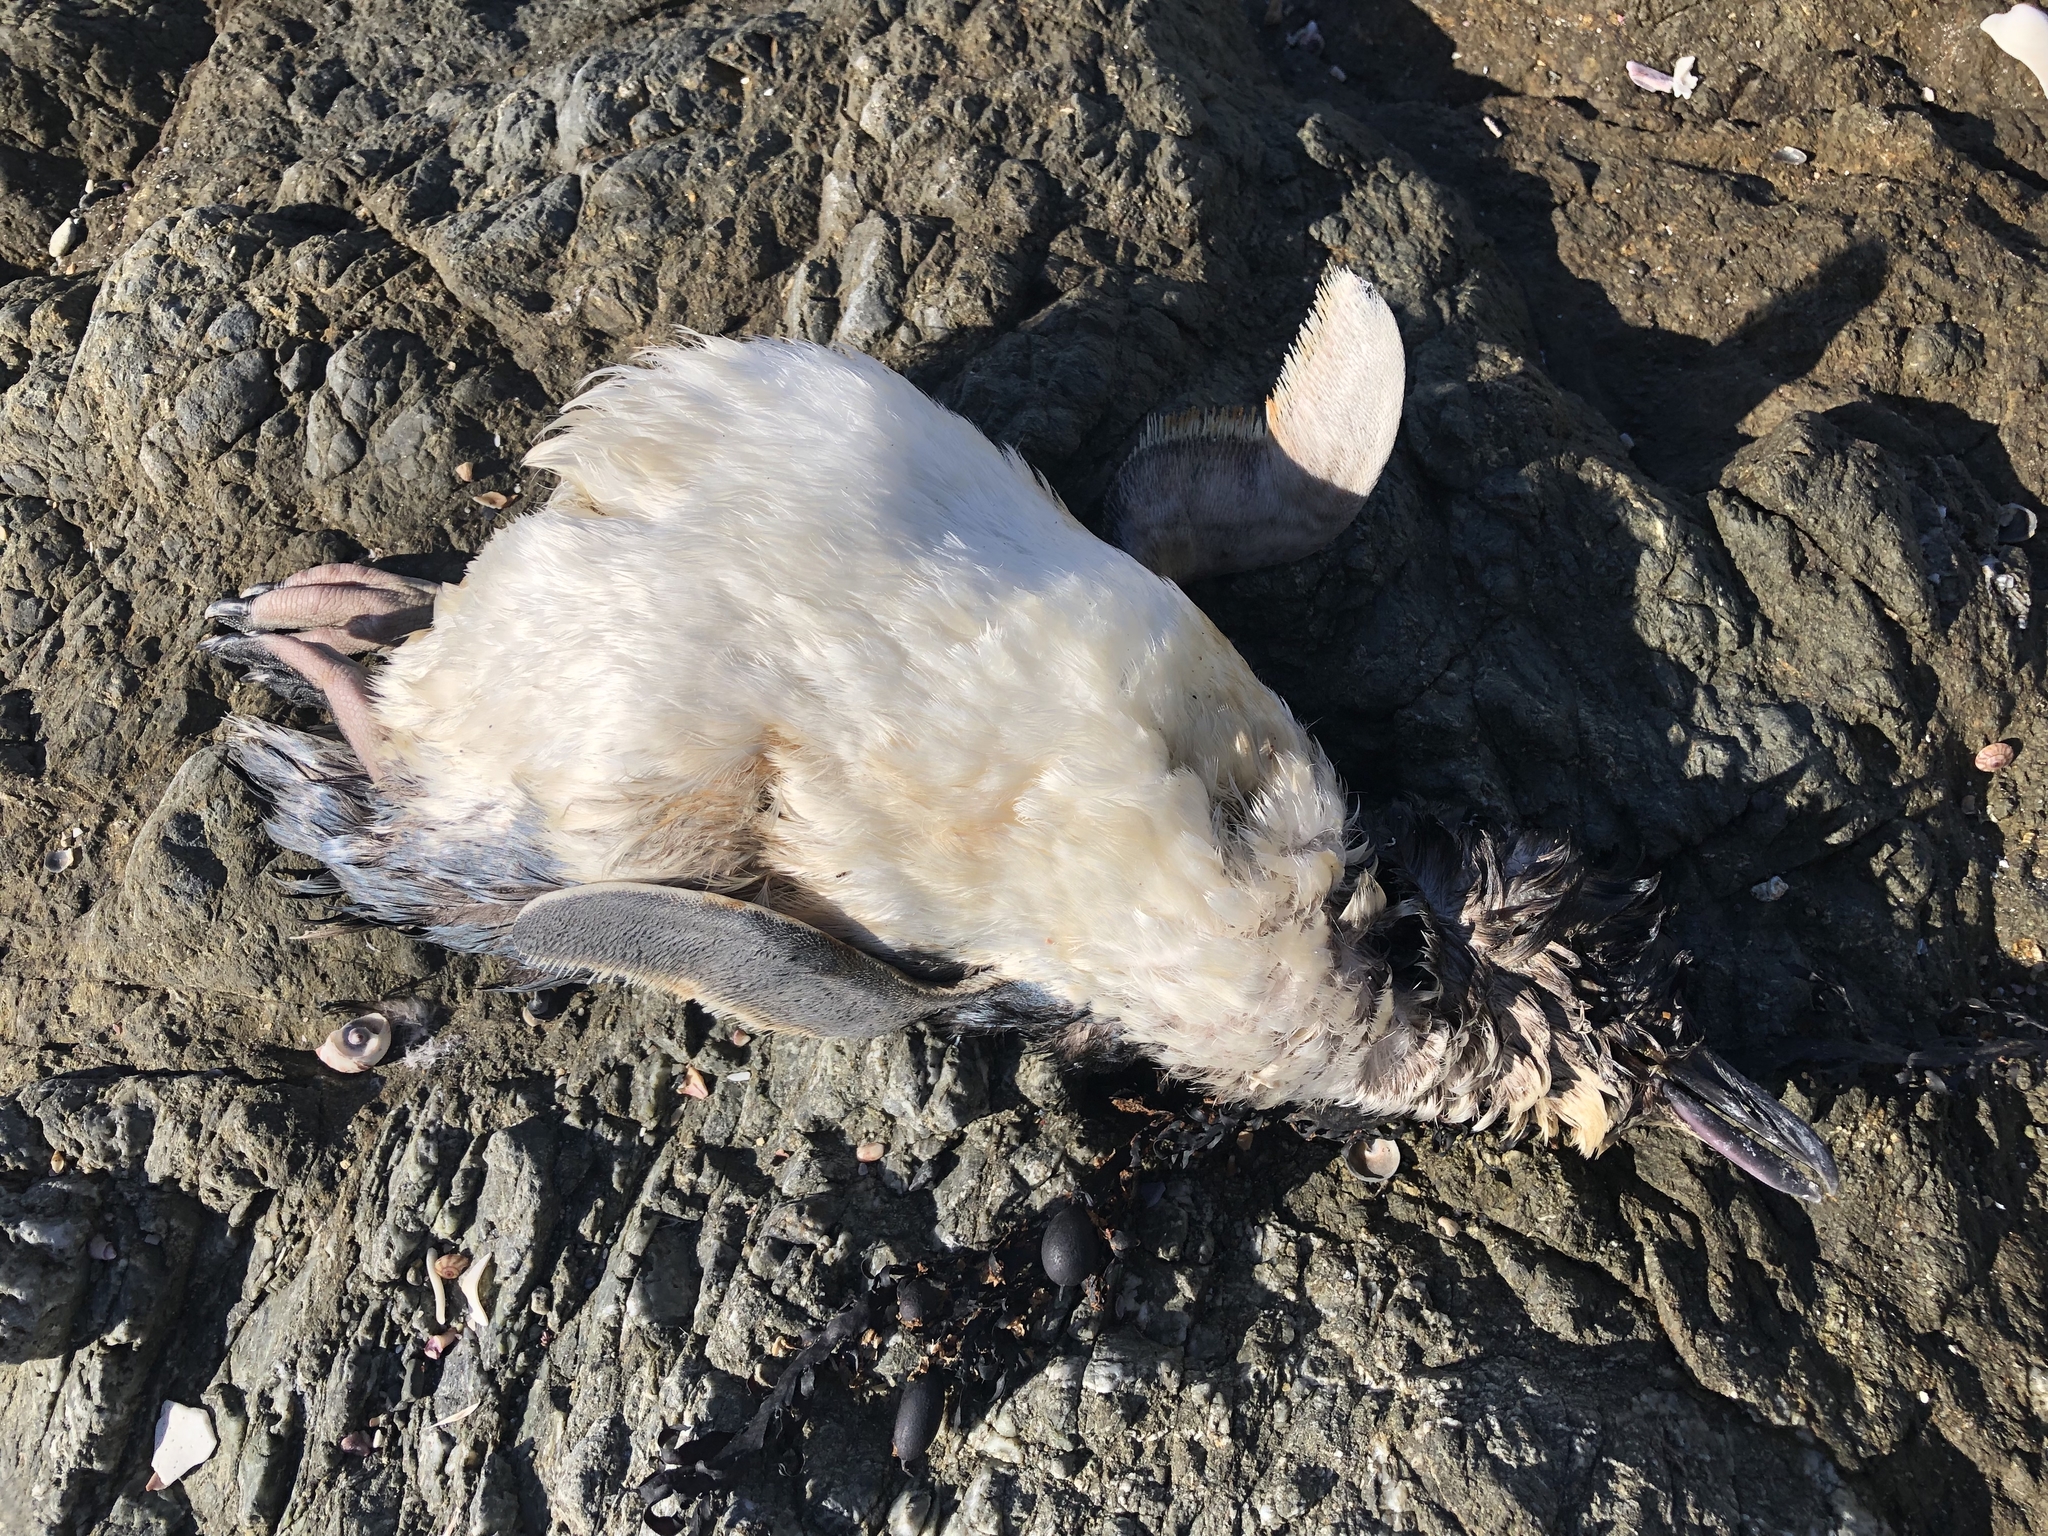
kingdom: Animalia
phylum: Chordata
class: Aves
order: Sphenisciformes
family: Spheniscidae
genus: Eudyptula
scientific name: Eudyptula minor
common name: Little penguin
